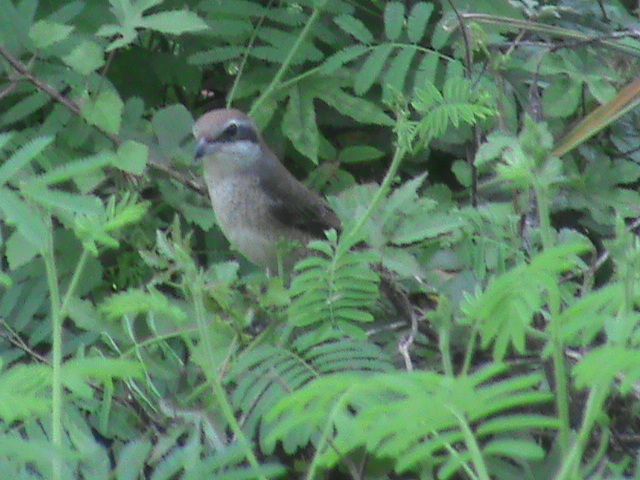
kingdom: Animalia
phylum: Chordata
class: Aves
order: Passeriformes
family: Laniidae
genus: Lanius
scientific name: Lanius cristatus
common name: Brown shrike
